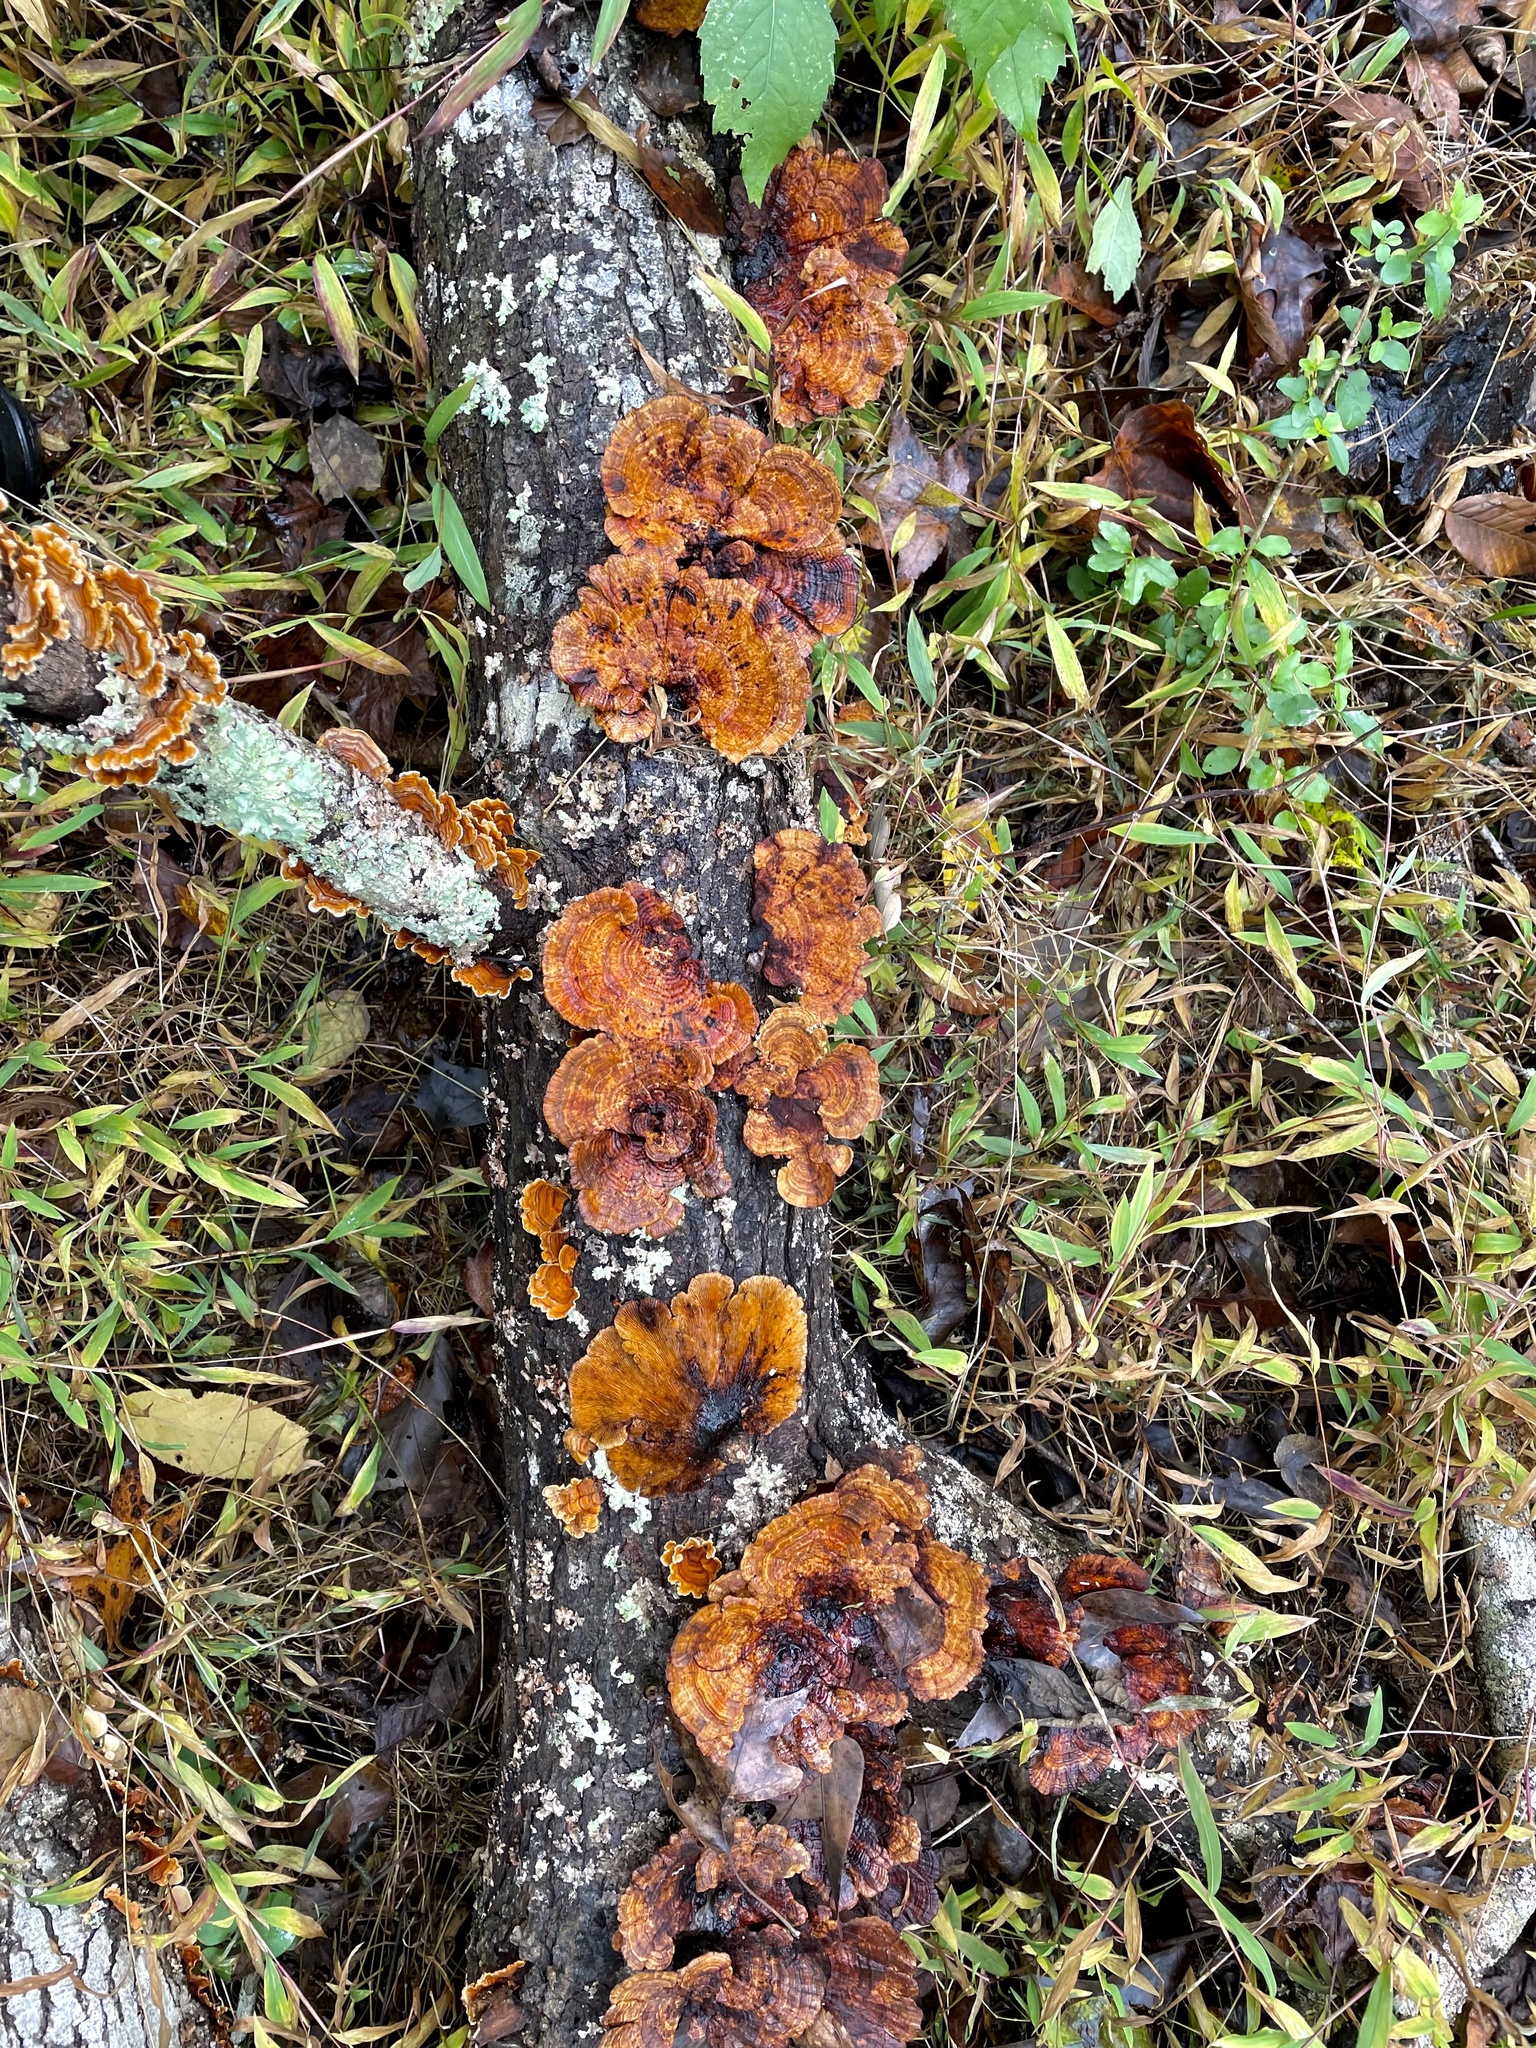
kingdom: Fungi
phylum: Basidiomycota
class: Agaricomycetes
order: Polyporales
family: Polyporaceae
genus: Daedaleopsis
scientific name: Daedaleopsis confragosa
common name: Blushing bracket
